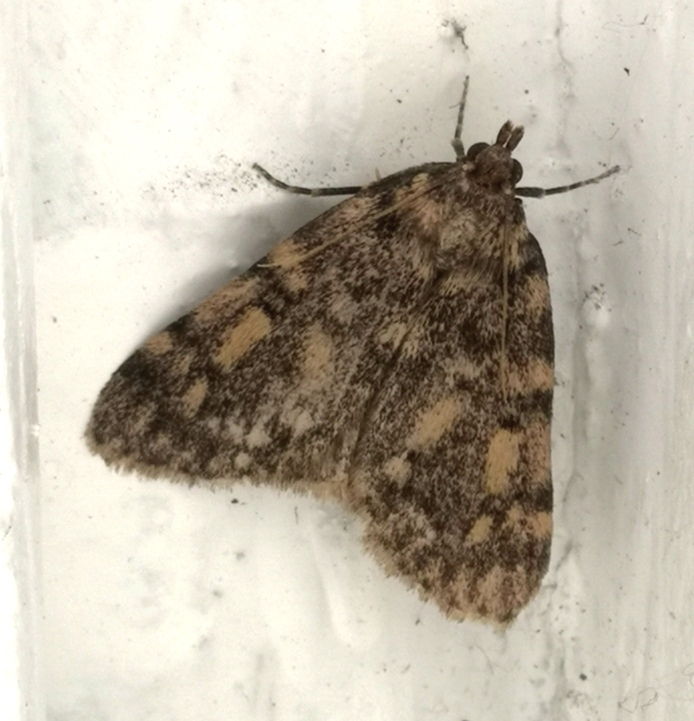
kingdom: Animalia
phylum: Arthropoda
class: Insecta
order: Lepidoptera
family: Pyralidae
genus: Aglossa
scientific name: Aglossa pinguinalis
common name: Large tabby
